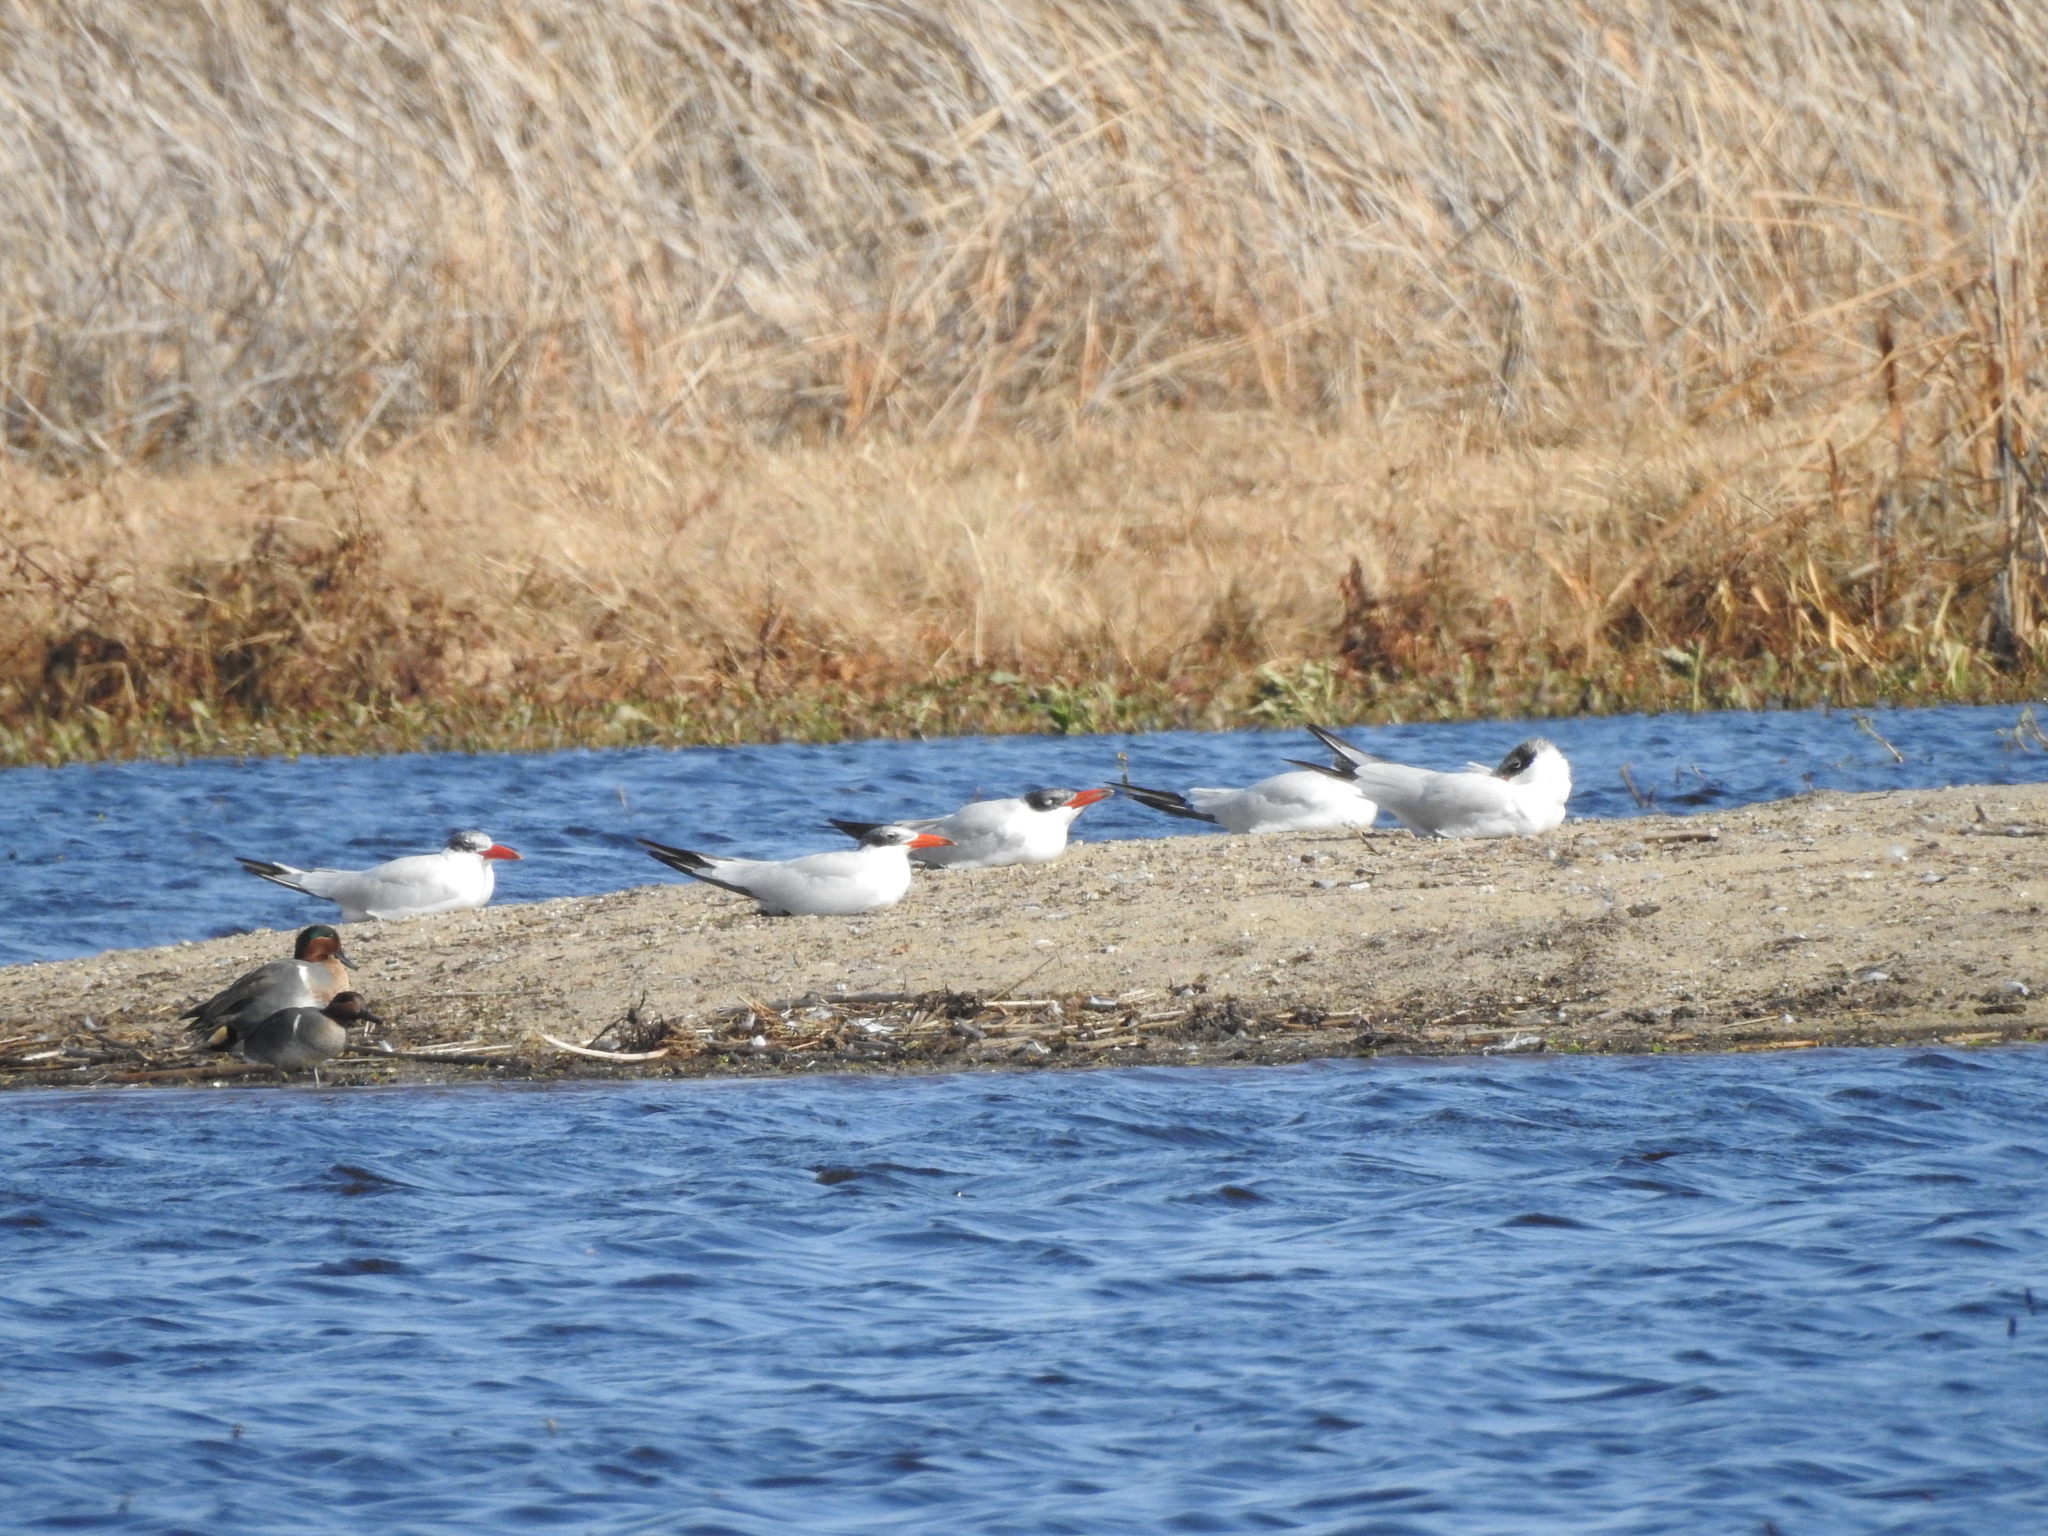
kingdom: Animalia
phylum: Chordata
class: Aves
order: Charadriiformes
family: Laridae
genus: Hydroprogne
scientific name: Hydroprogne caspia
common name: Caspian tern
